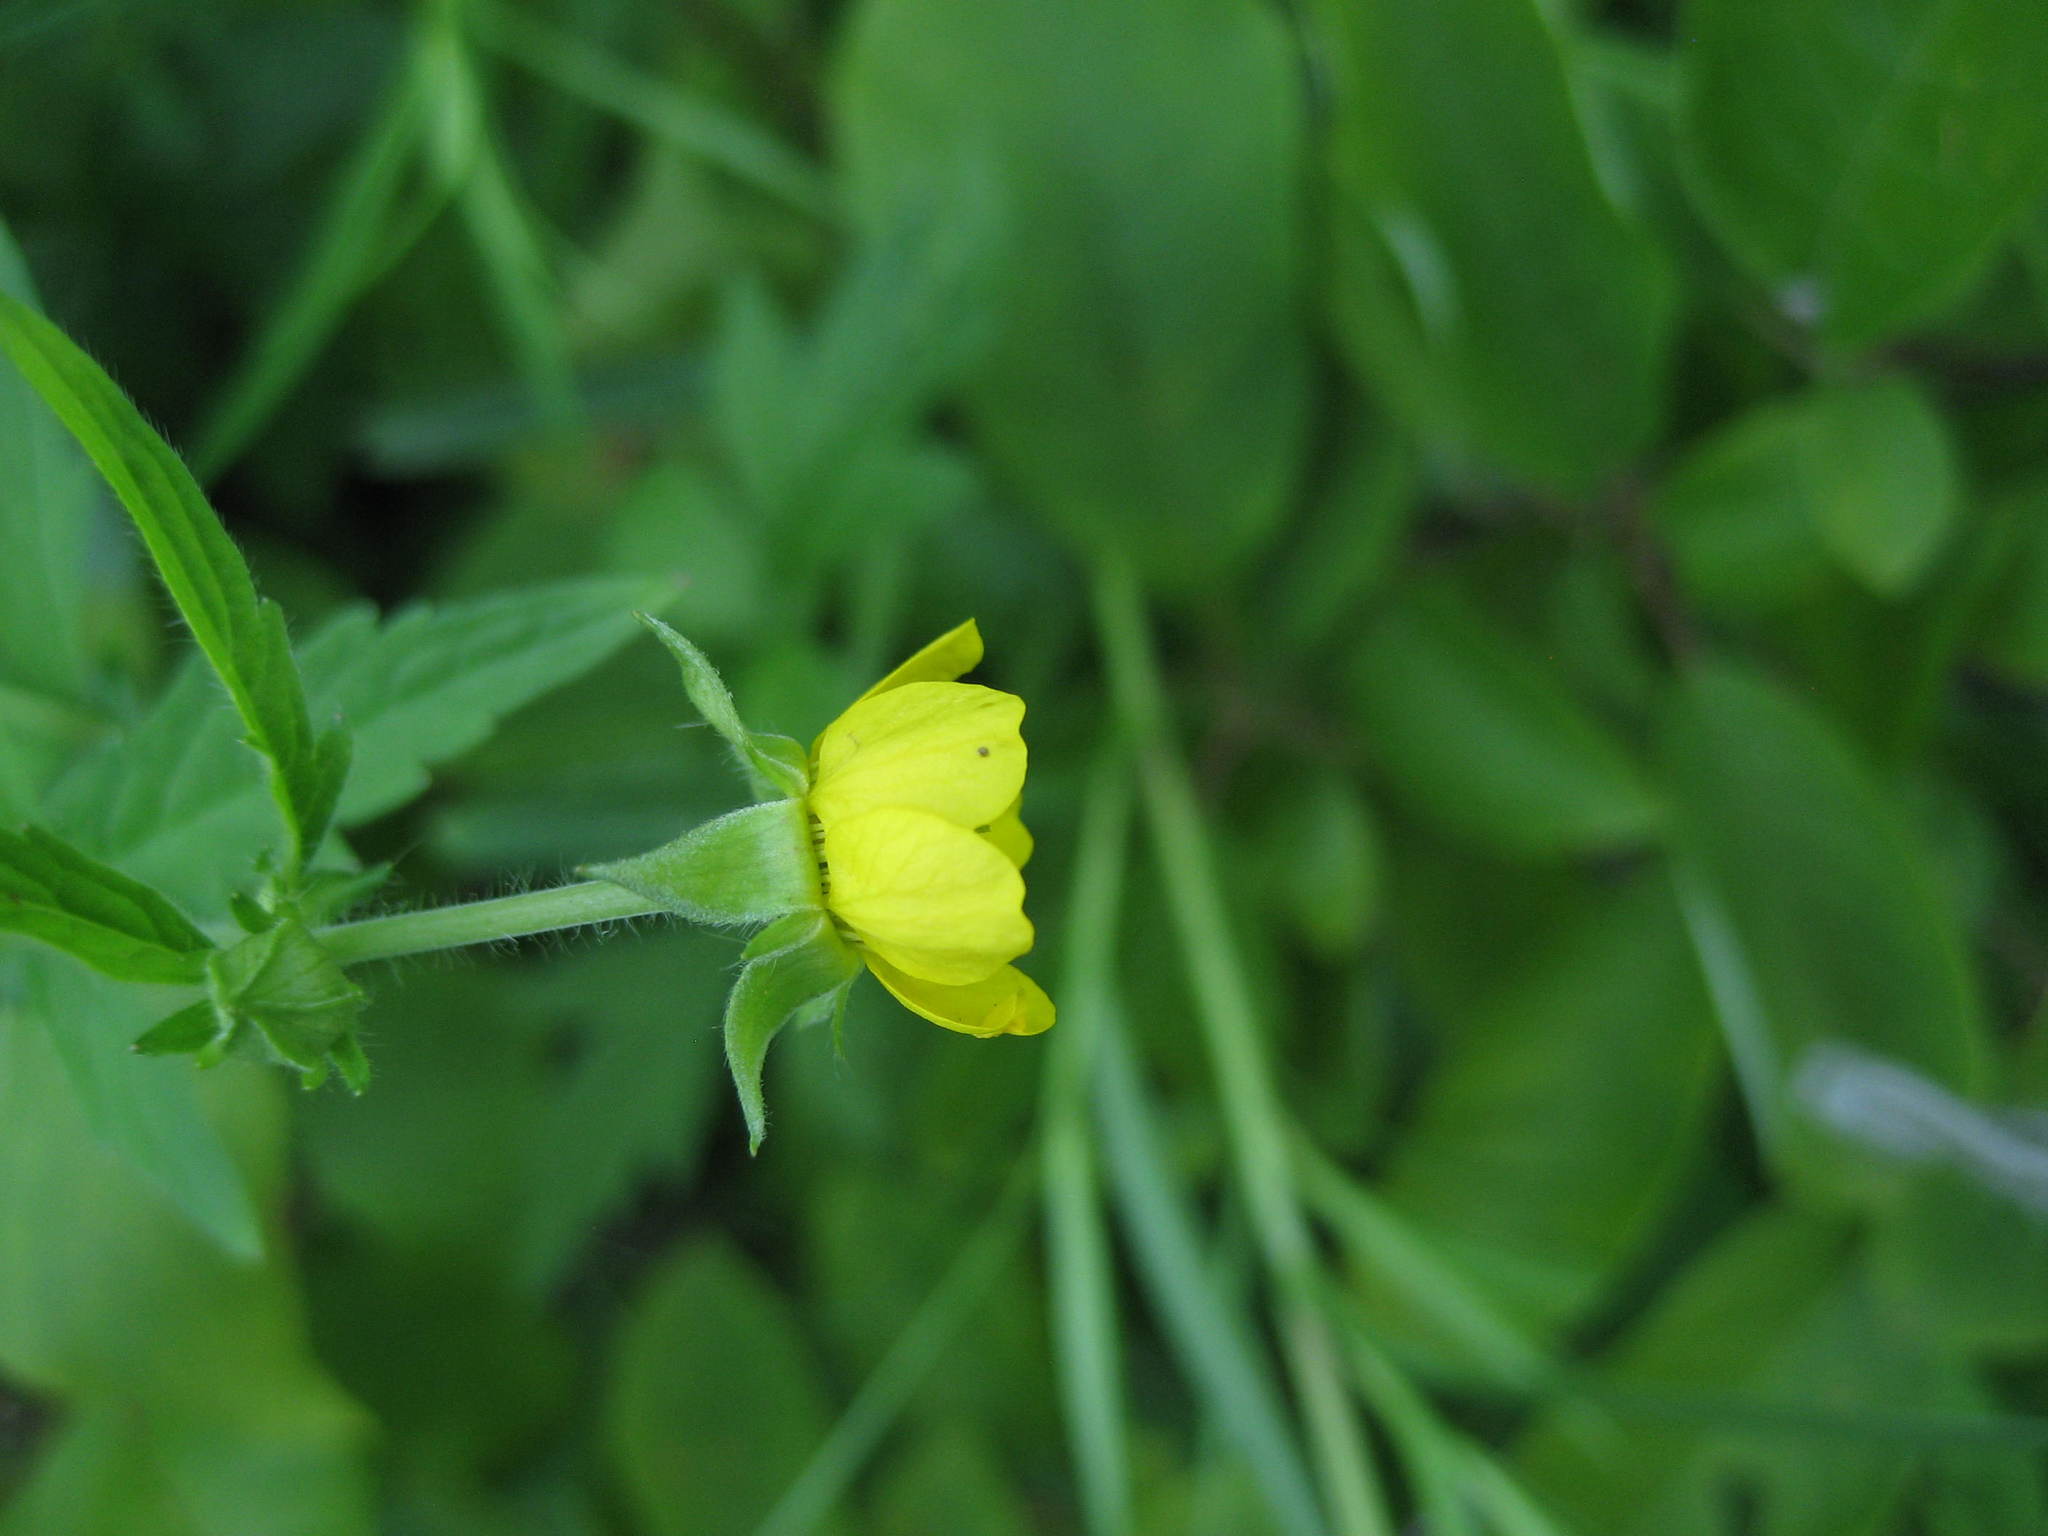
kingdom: Plantae
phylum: Tracheophyta
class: Magnoliopsida
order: Rosales
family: Rosaceae
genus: Geum
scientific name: Geum aleppicum
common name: Yellow avens
